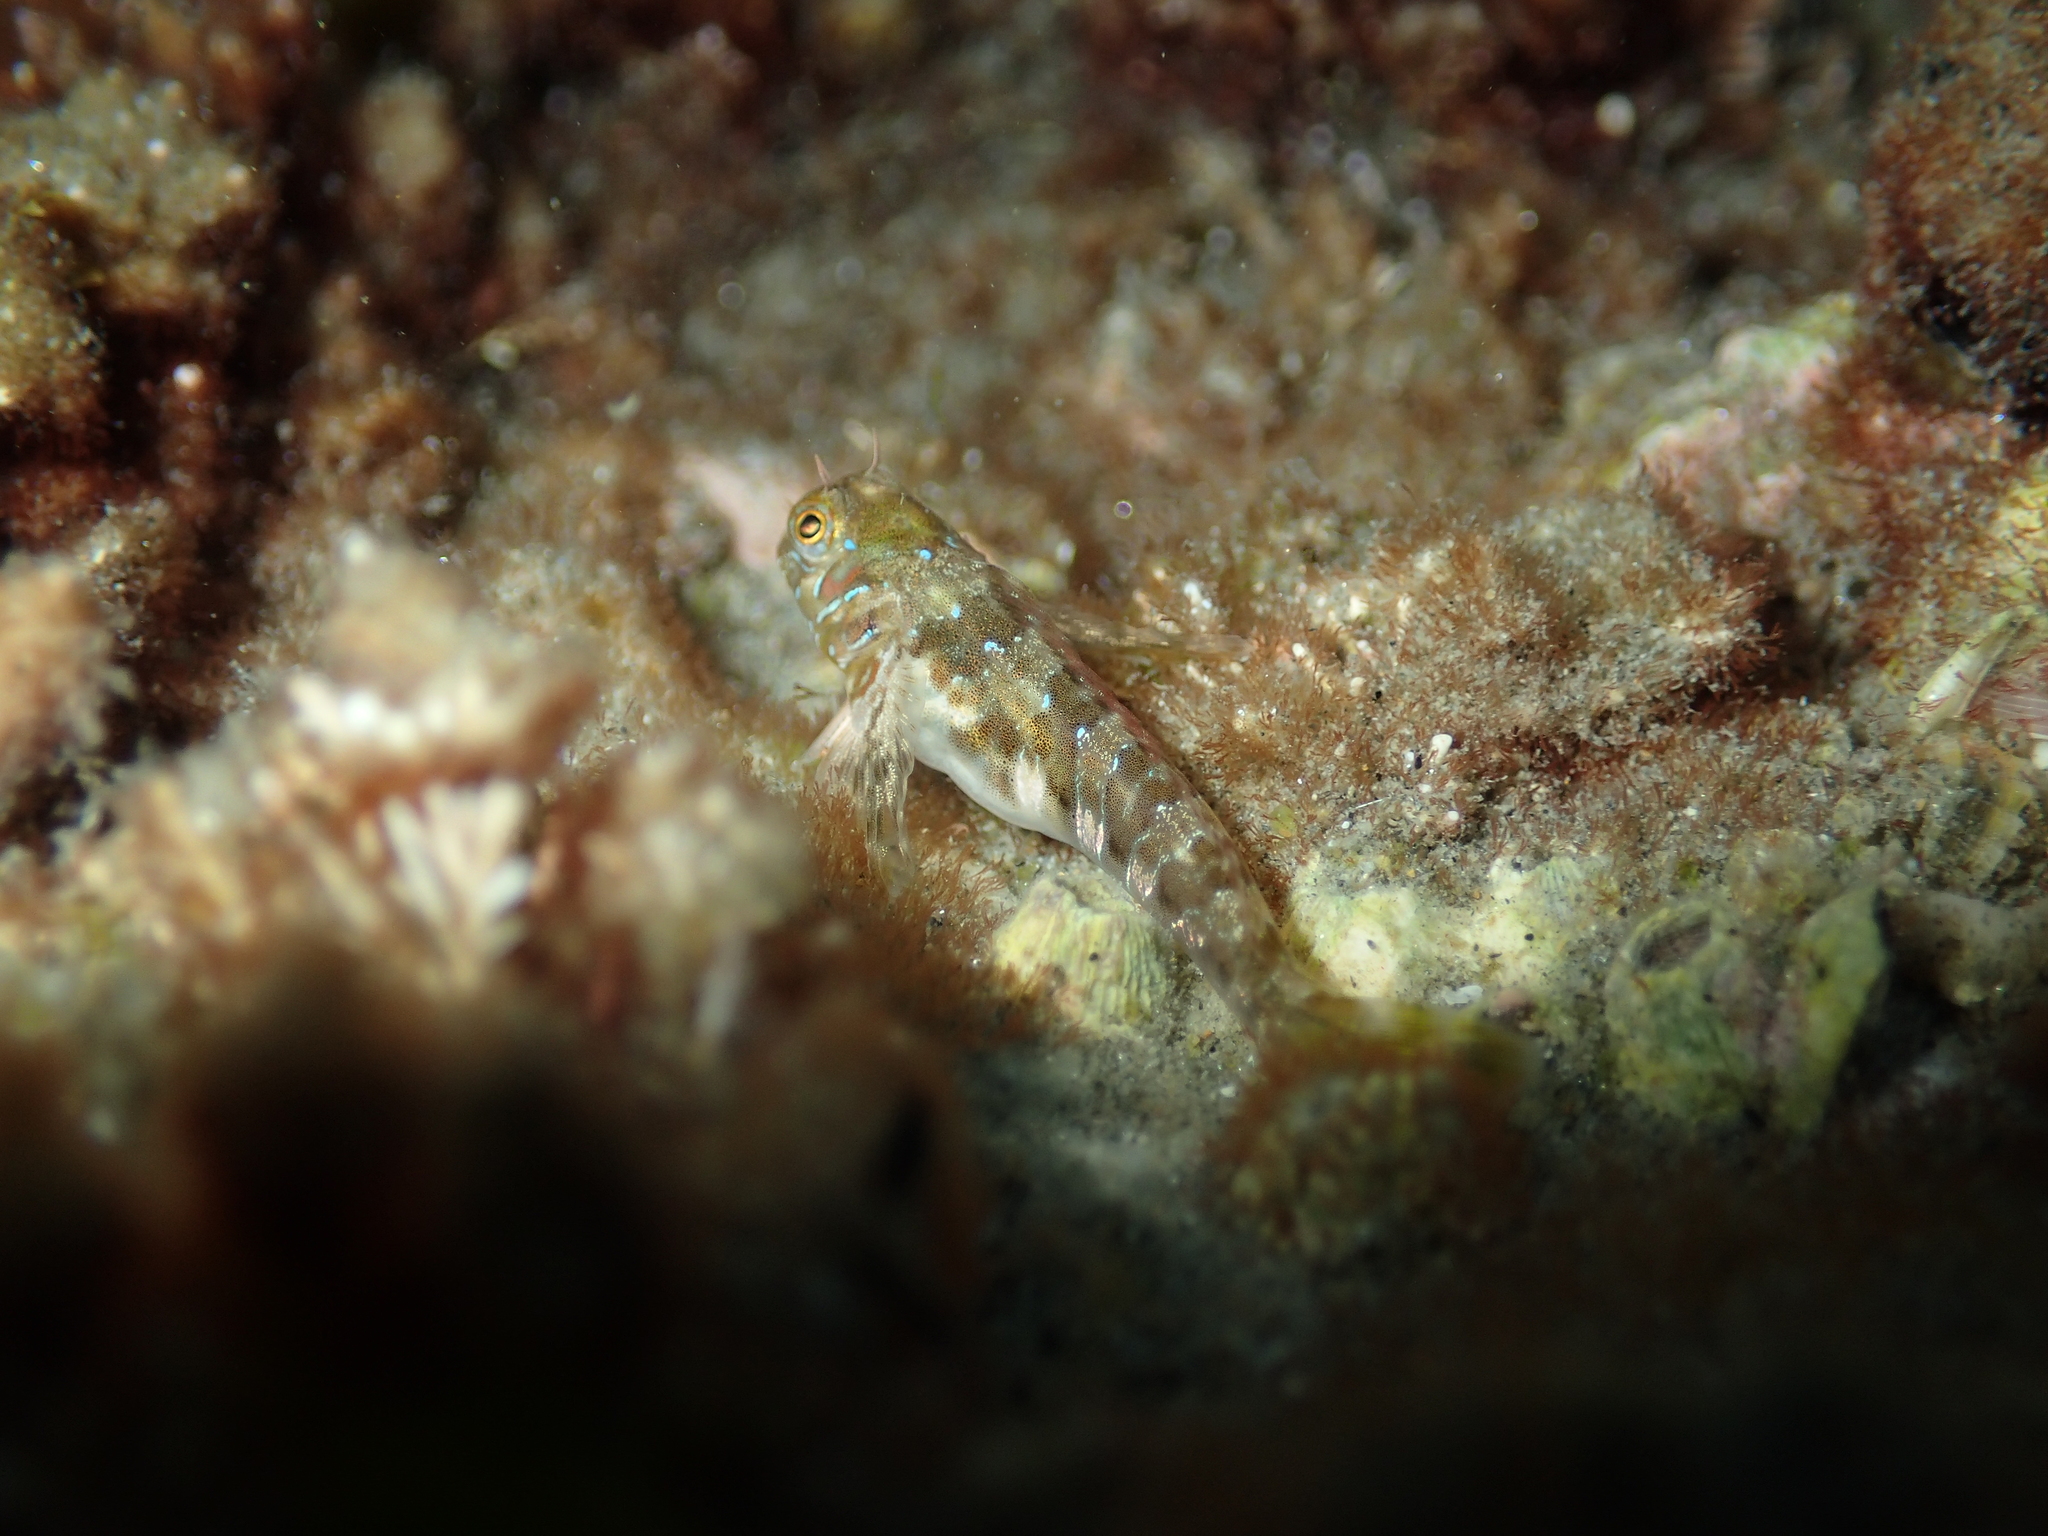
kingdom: Animalia
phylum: Chordata
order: Perciformes
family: Blenniidae
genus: Aidablennius
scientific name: Aidablennius sphynx
